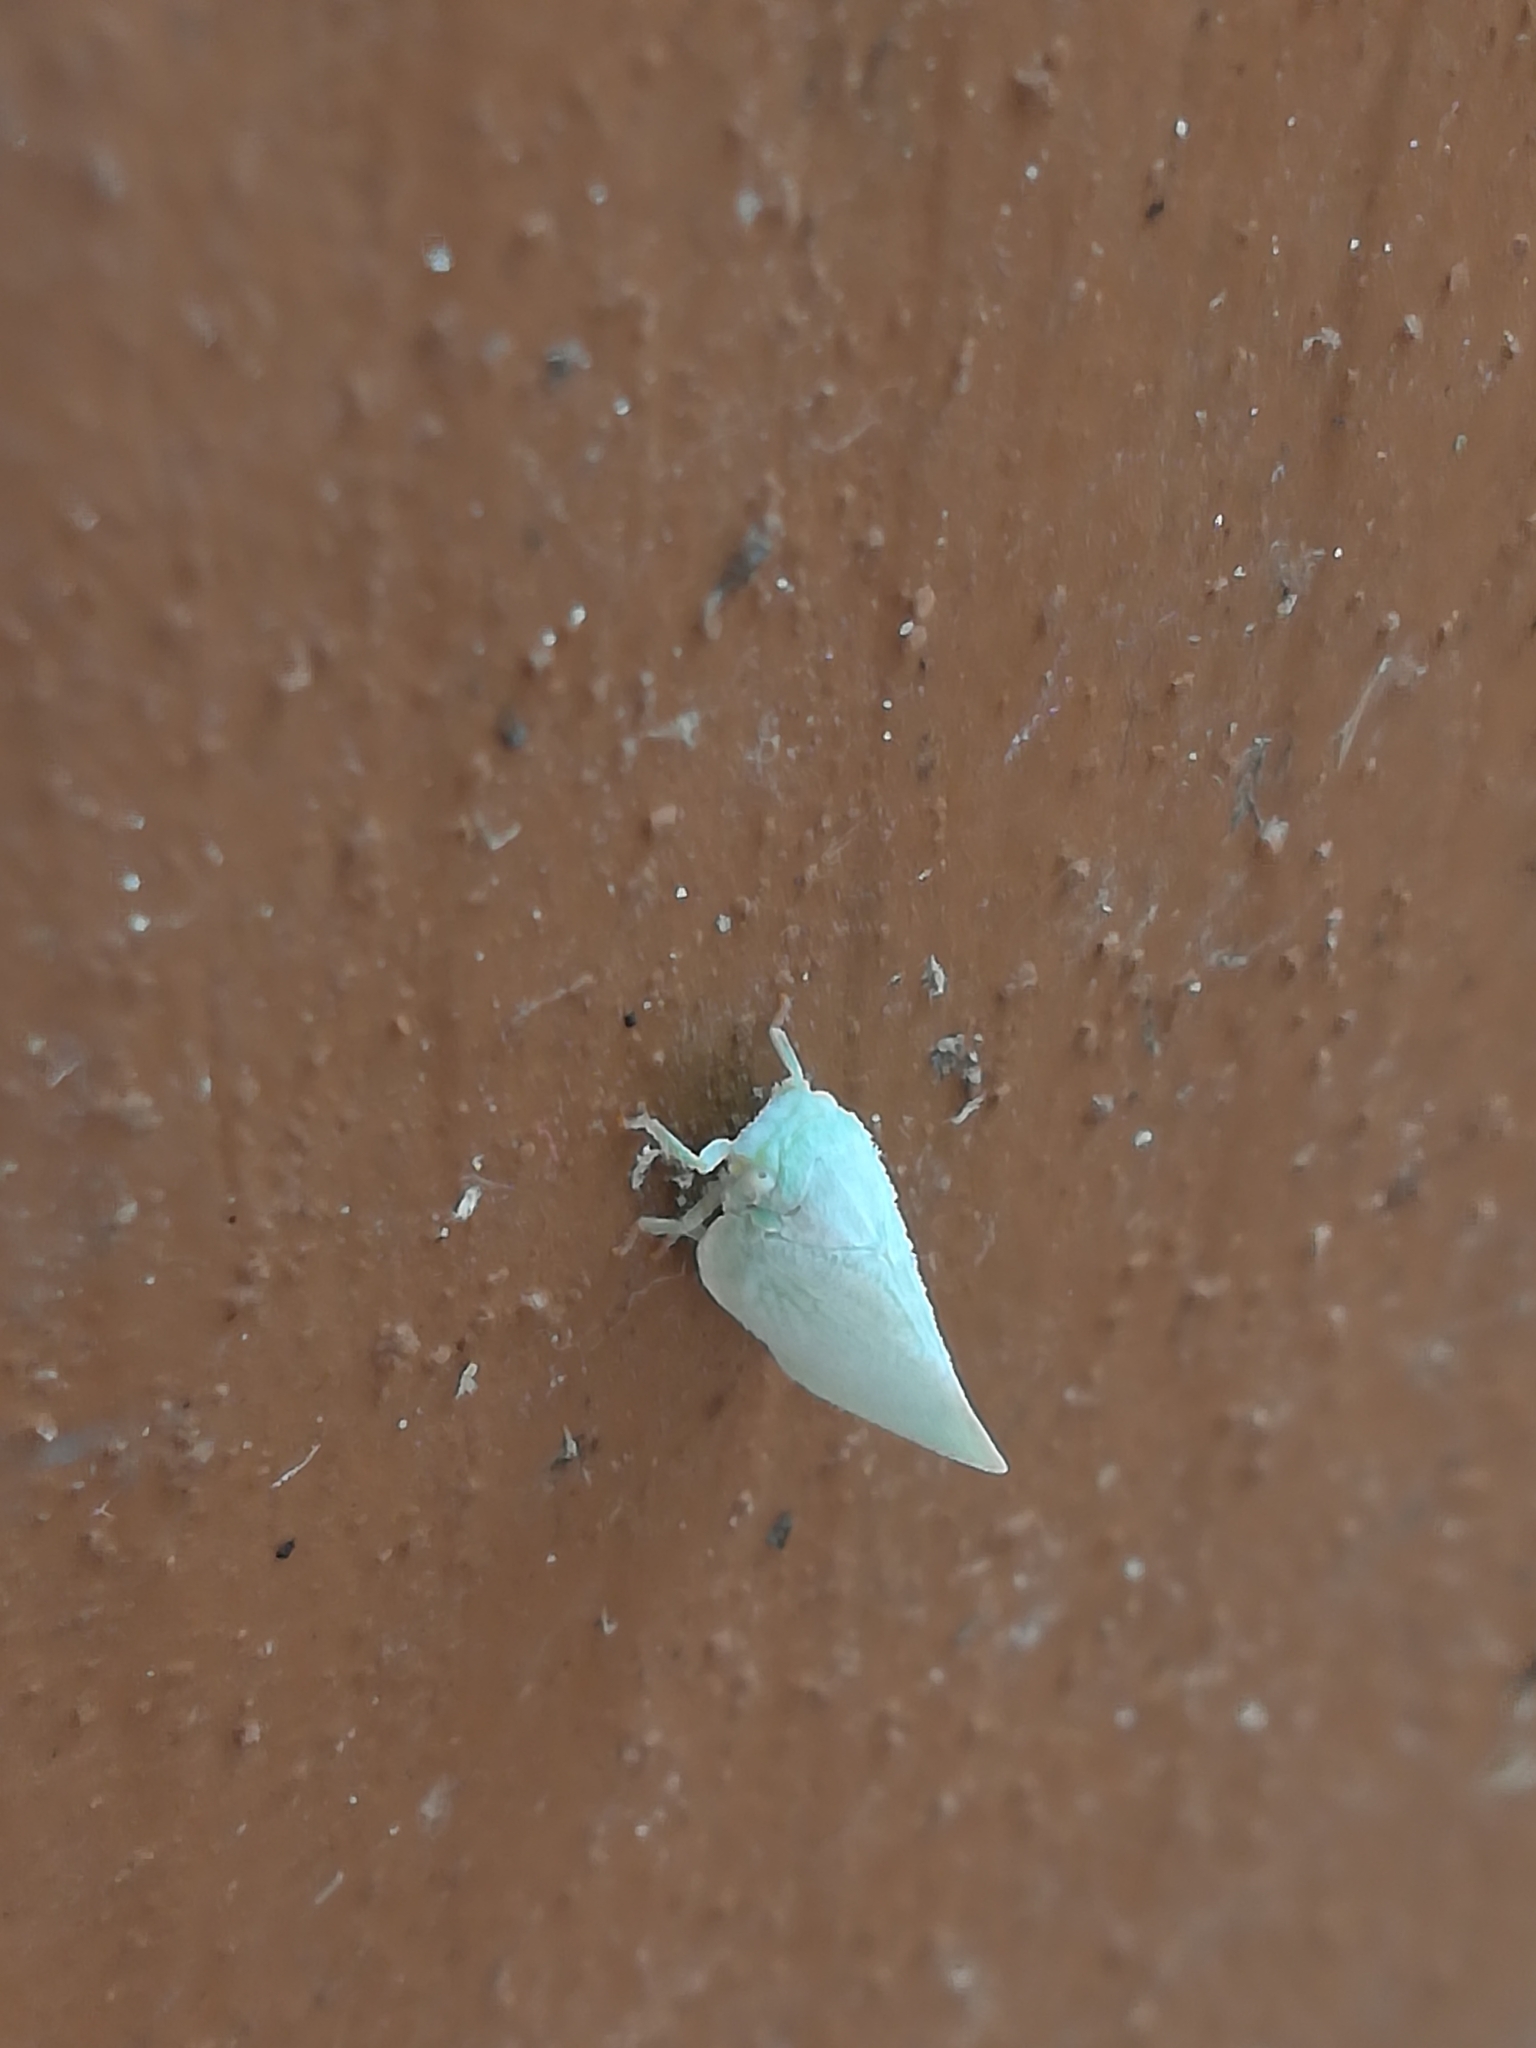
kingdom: Animalia
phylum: Arthropoda
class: Insecta
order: Hemiptera
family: Flatidae
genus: Flatormenis
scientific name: Flatormenis proxima
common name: Northern flatid planthopper
